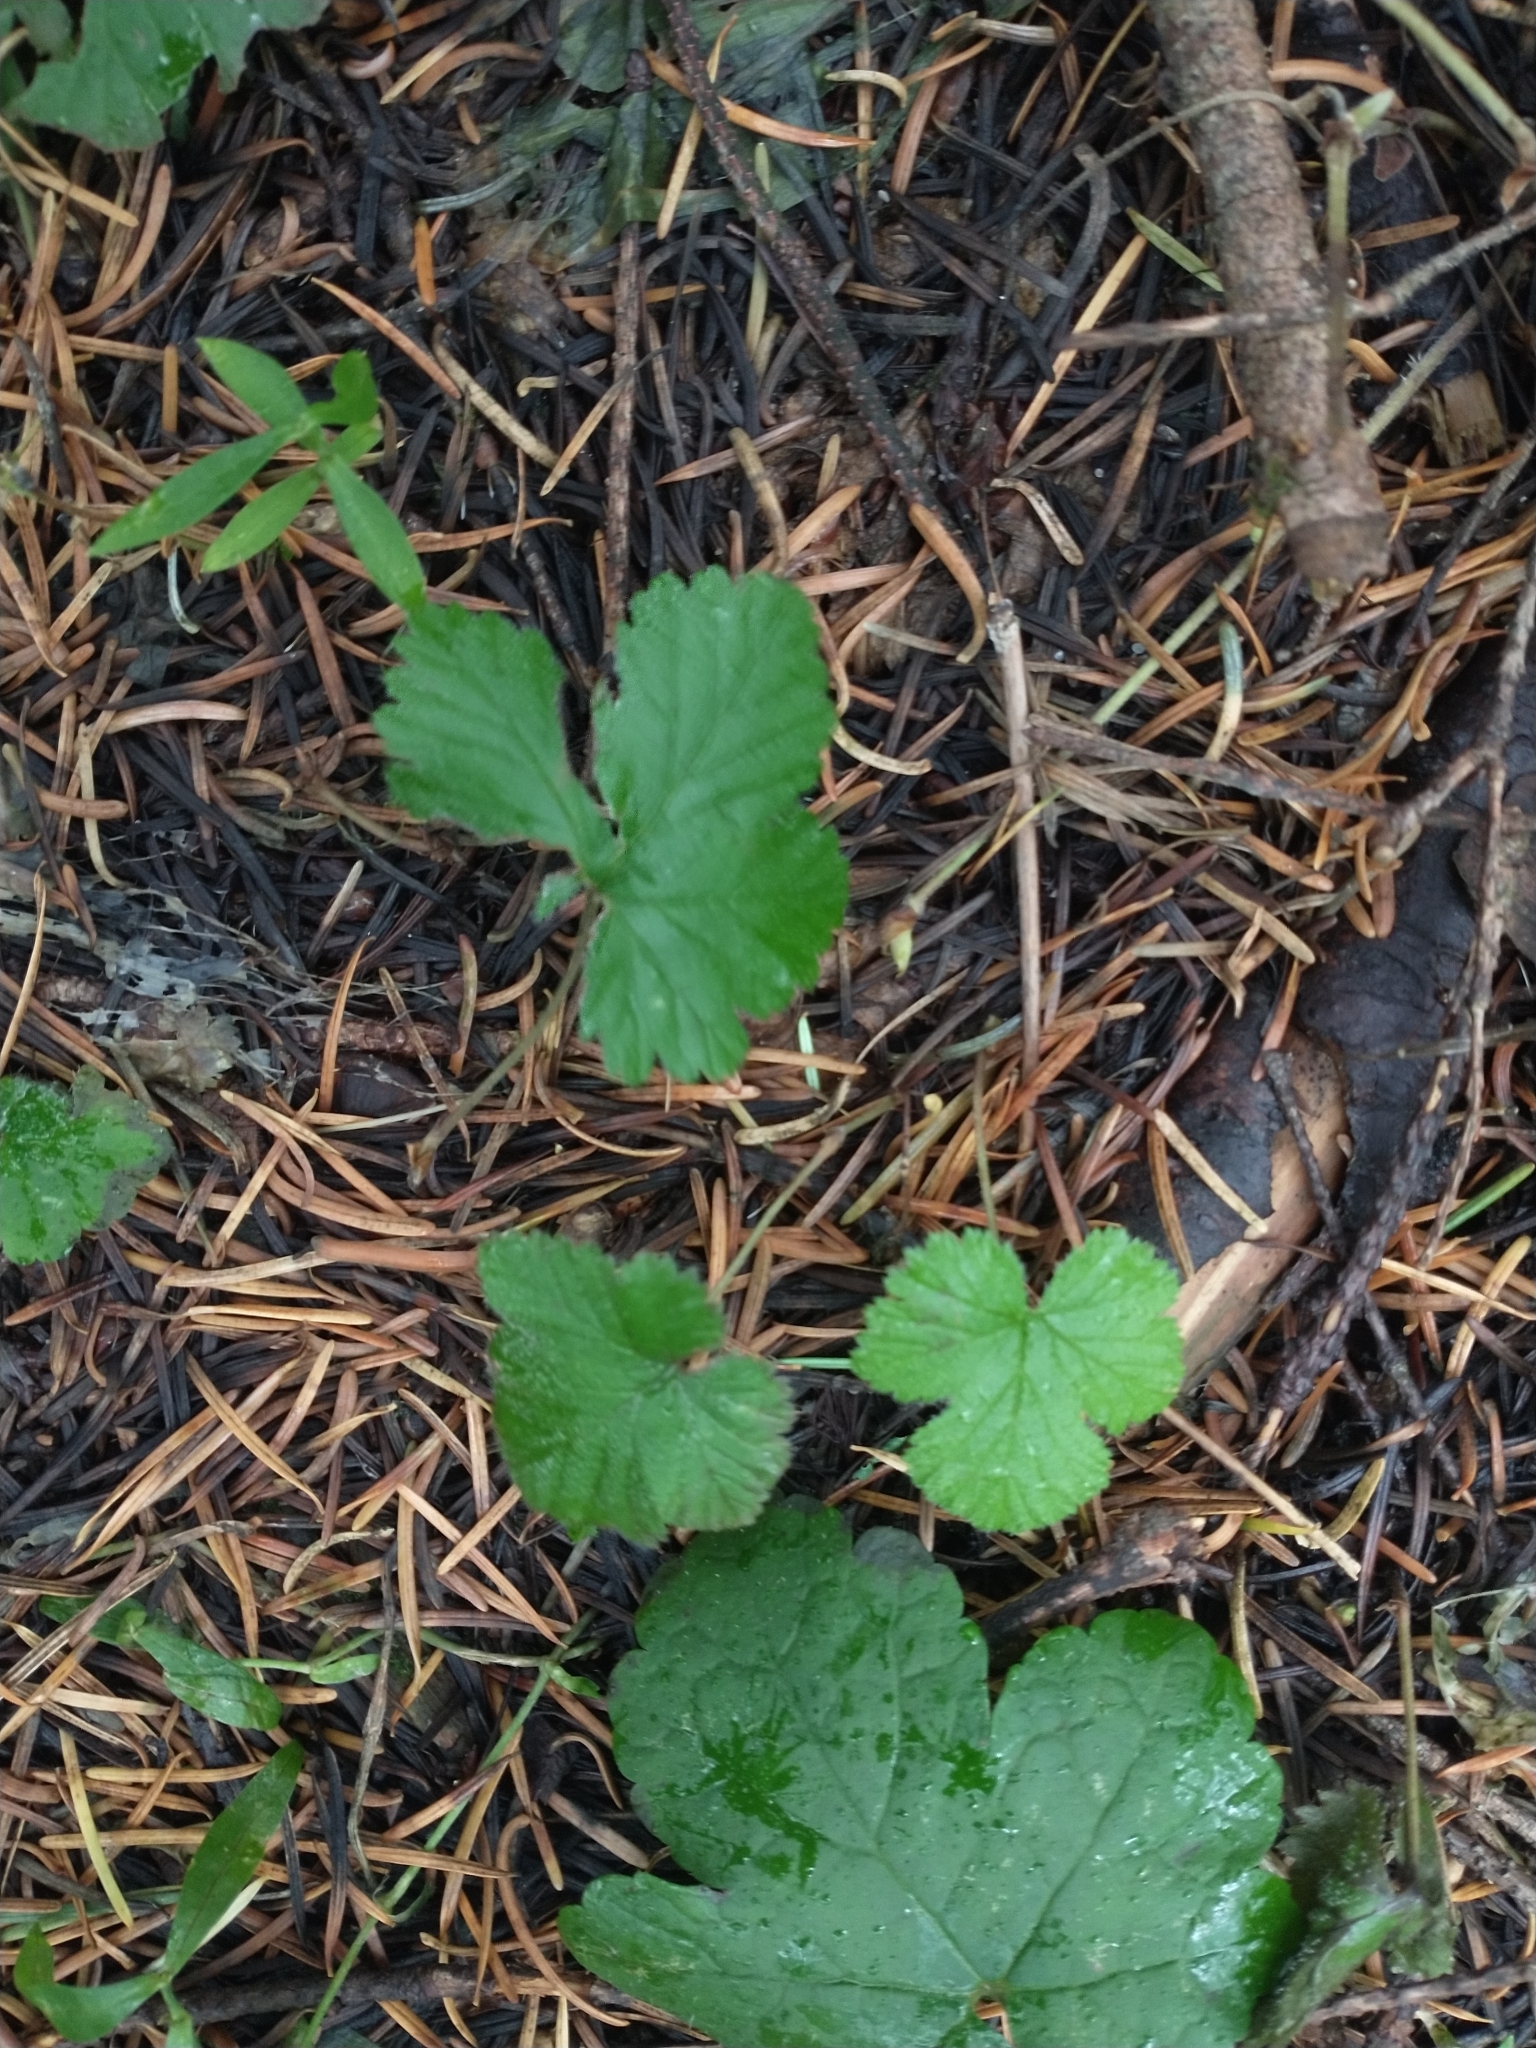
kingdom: Plantae
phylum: Tracheophyta
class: Magnoliopsida
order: Rosales
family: Rosaceae
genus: Rubus
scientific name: Rubus lasiococcus
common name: Dwarf bramble
